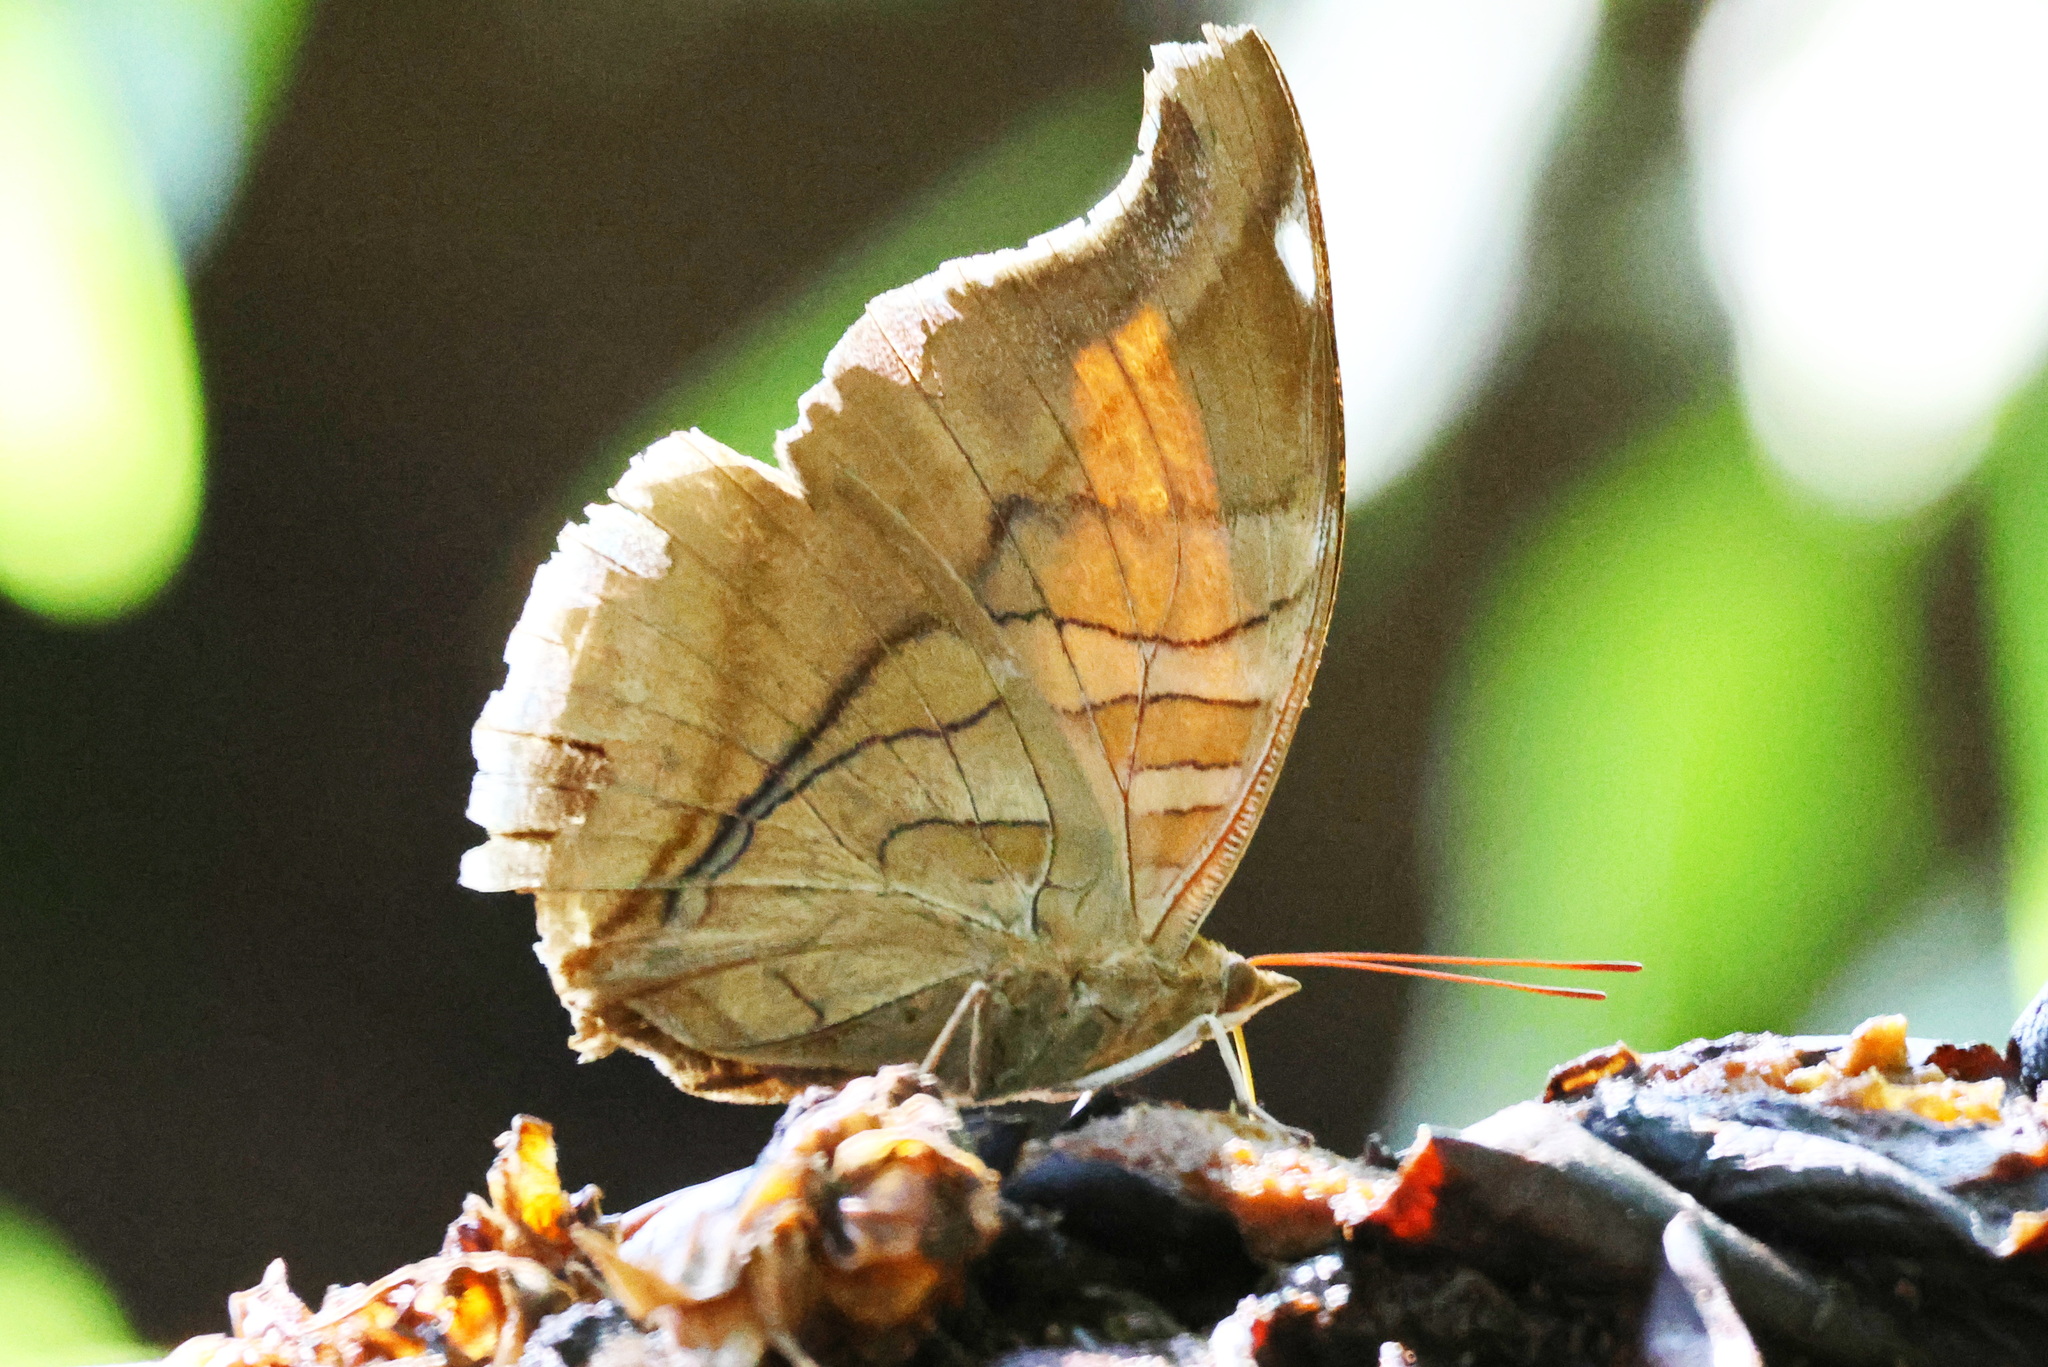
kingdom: Animalia
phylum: Arthropoda
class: Insecta
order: Lepidoptera
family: Nymphalidae
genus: Historis
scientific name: Historis odius
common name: Orion cecropian
